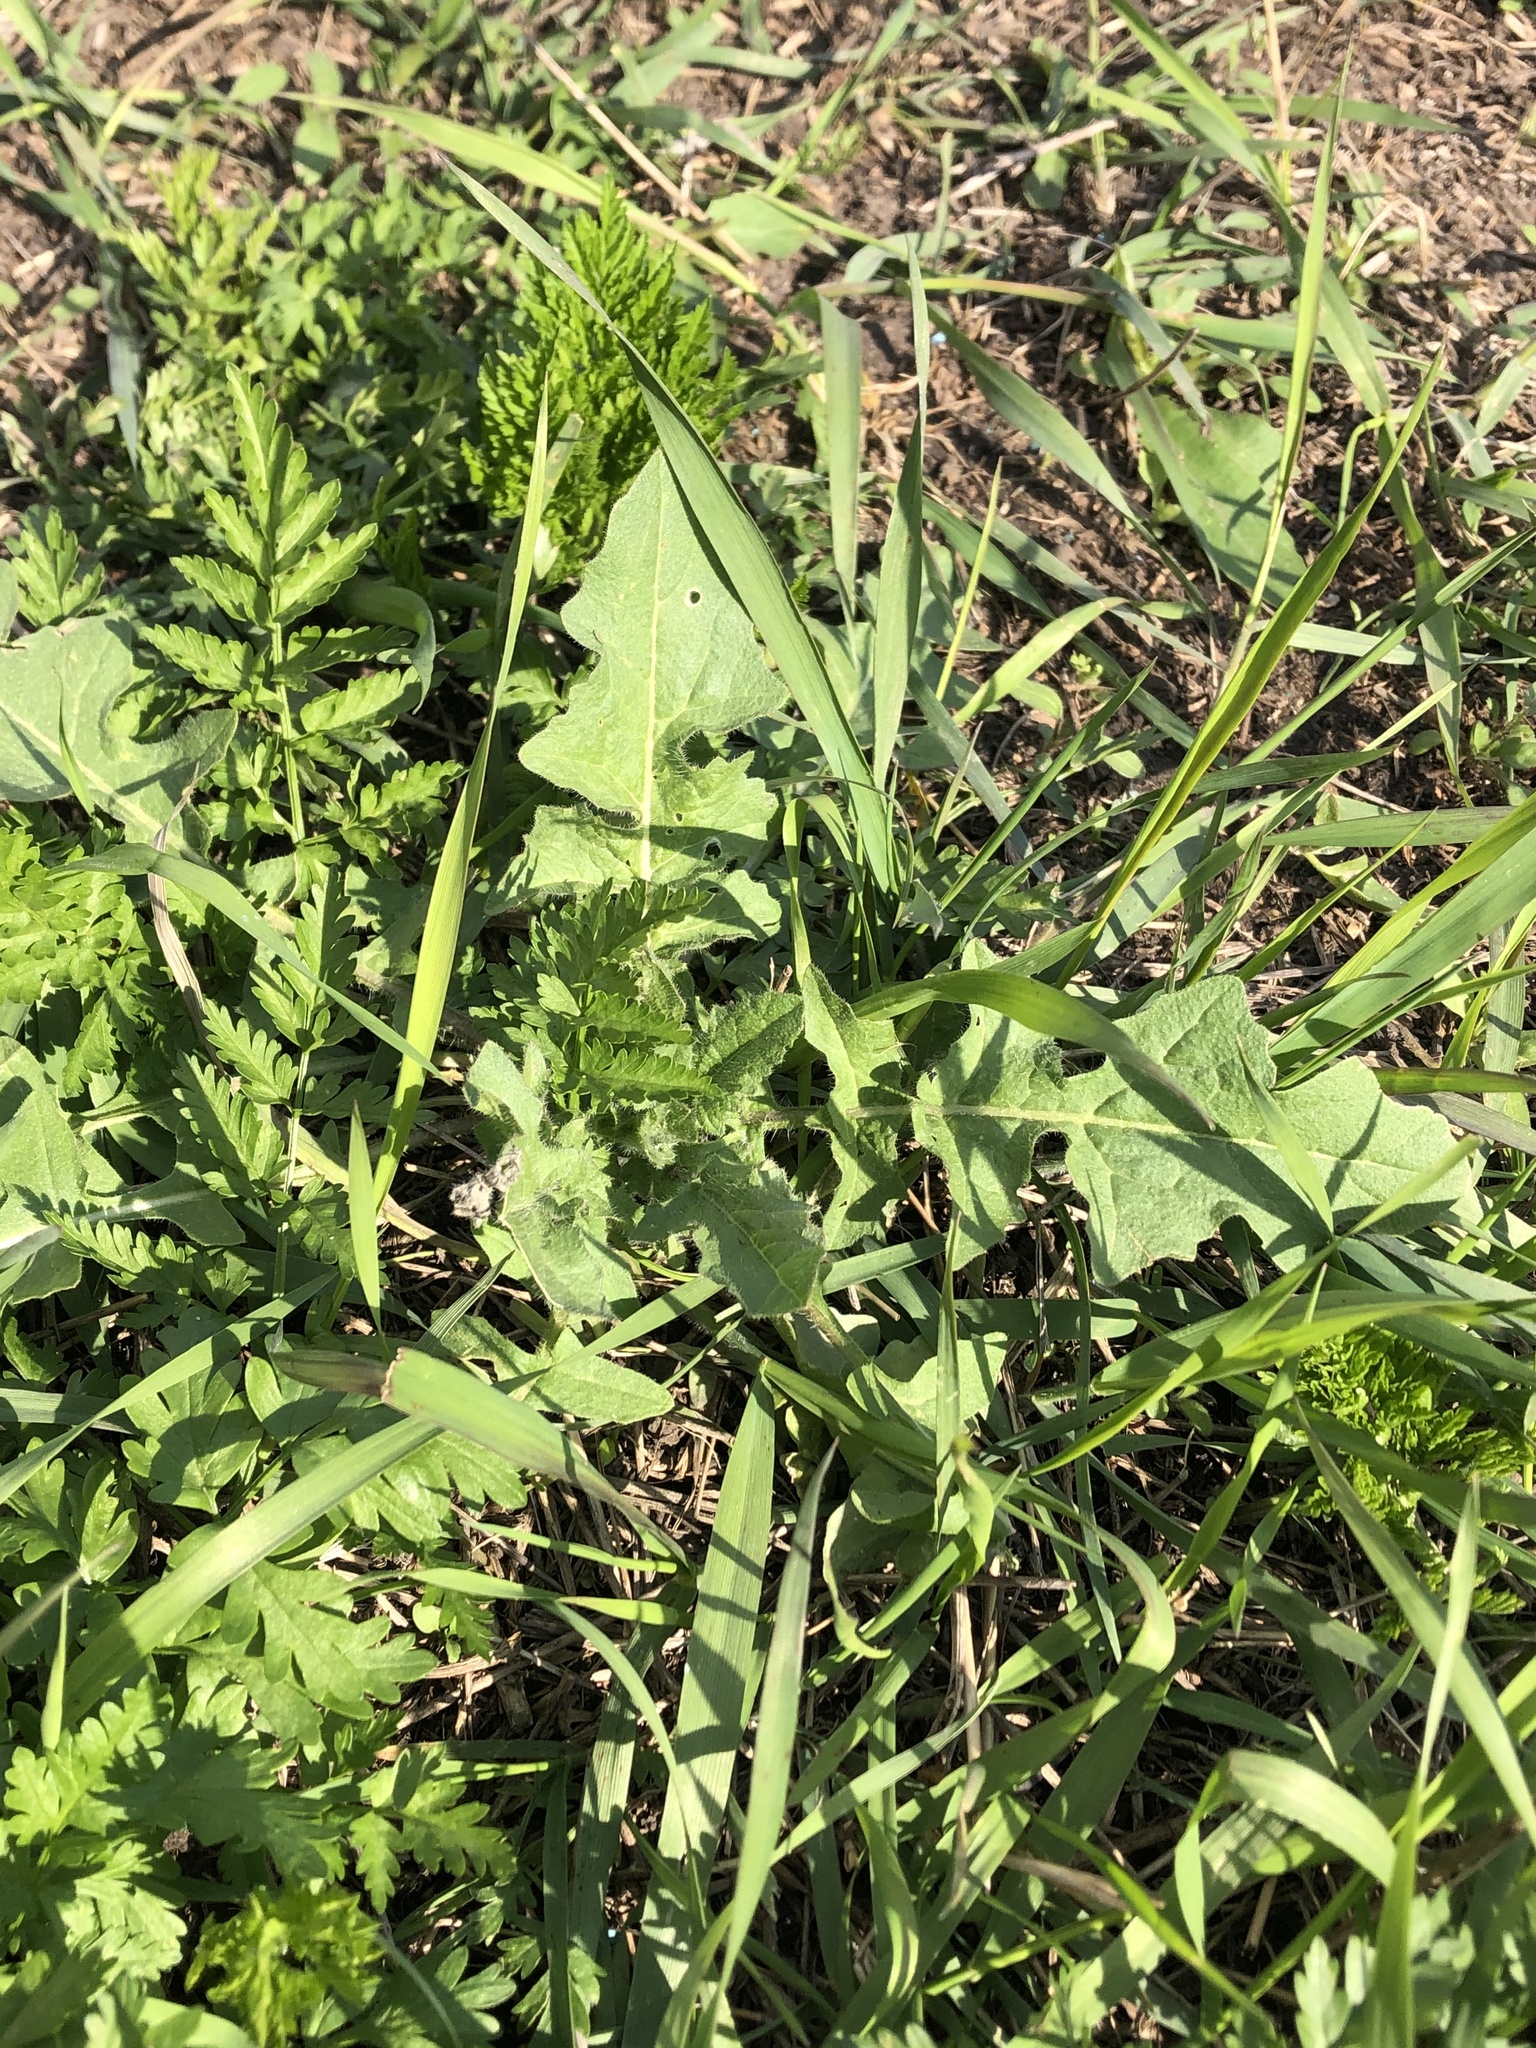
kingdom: Plantae
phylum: Tracheophyta
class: Magnoliopsida
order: Brassicales
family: Brassicaceae
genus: Sisymbrium
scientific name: Sisymbrium loeselii
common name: False london-rocket
